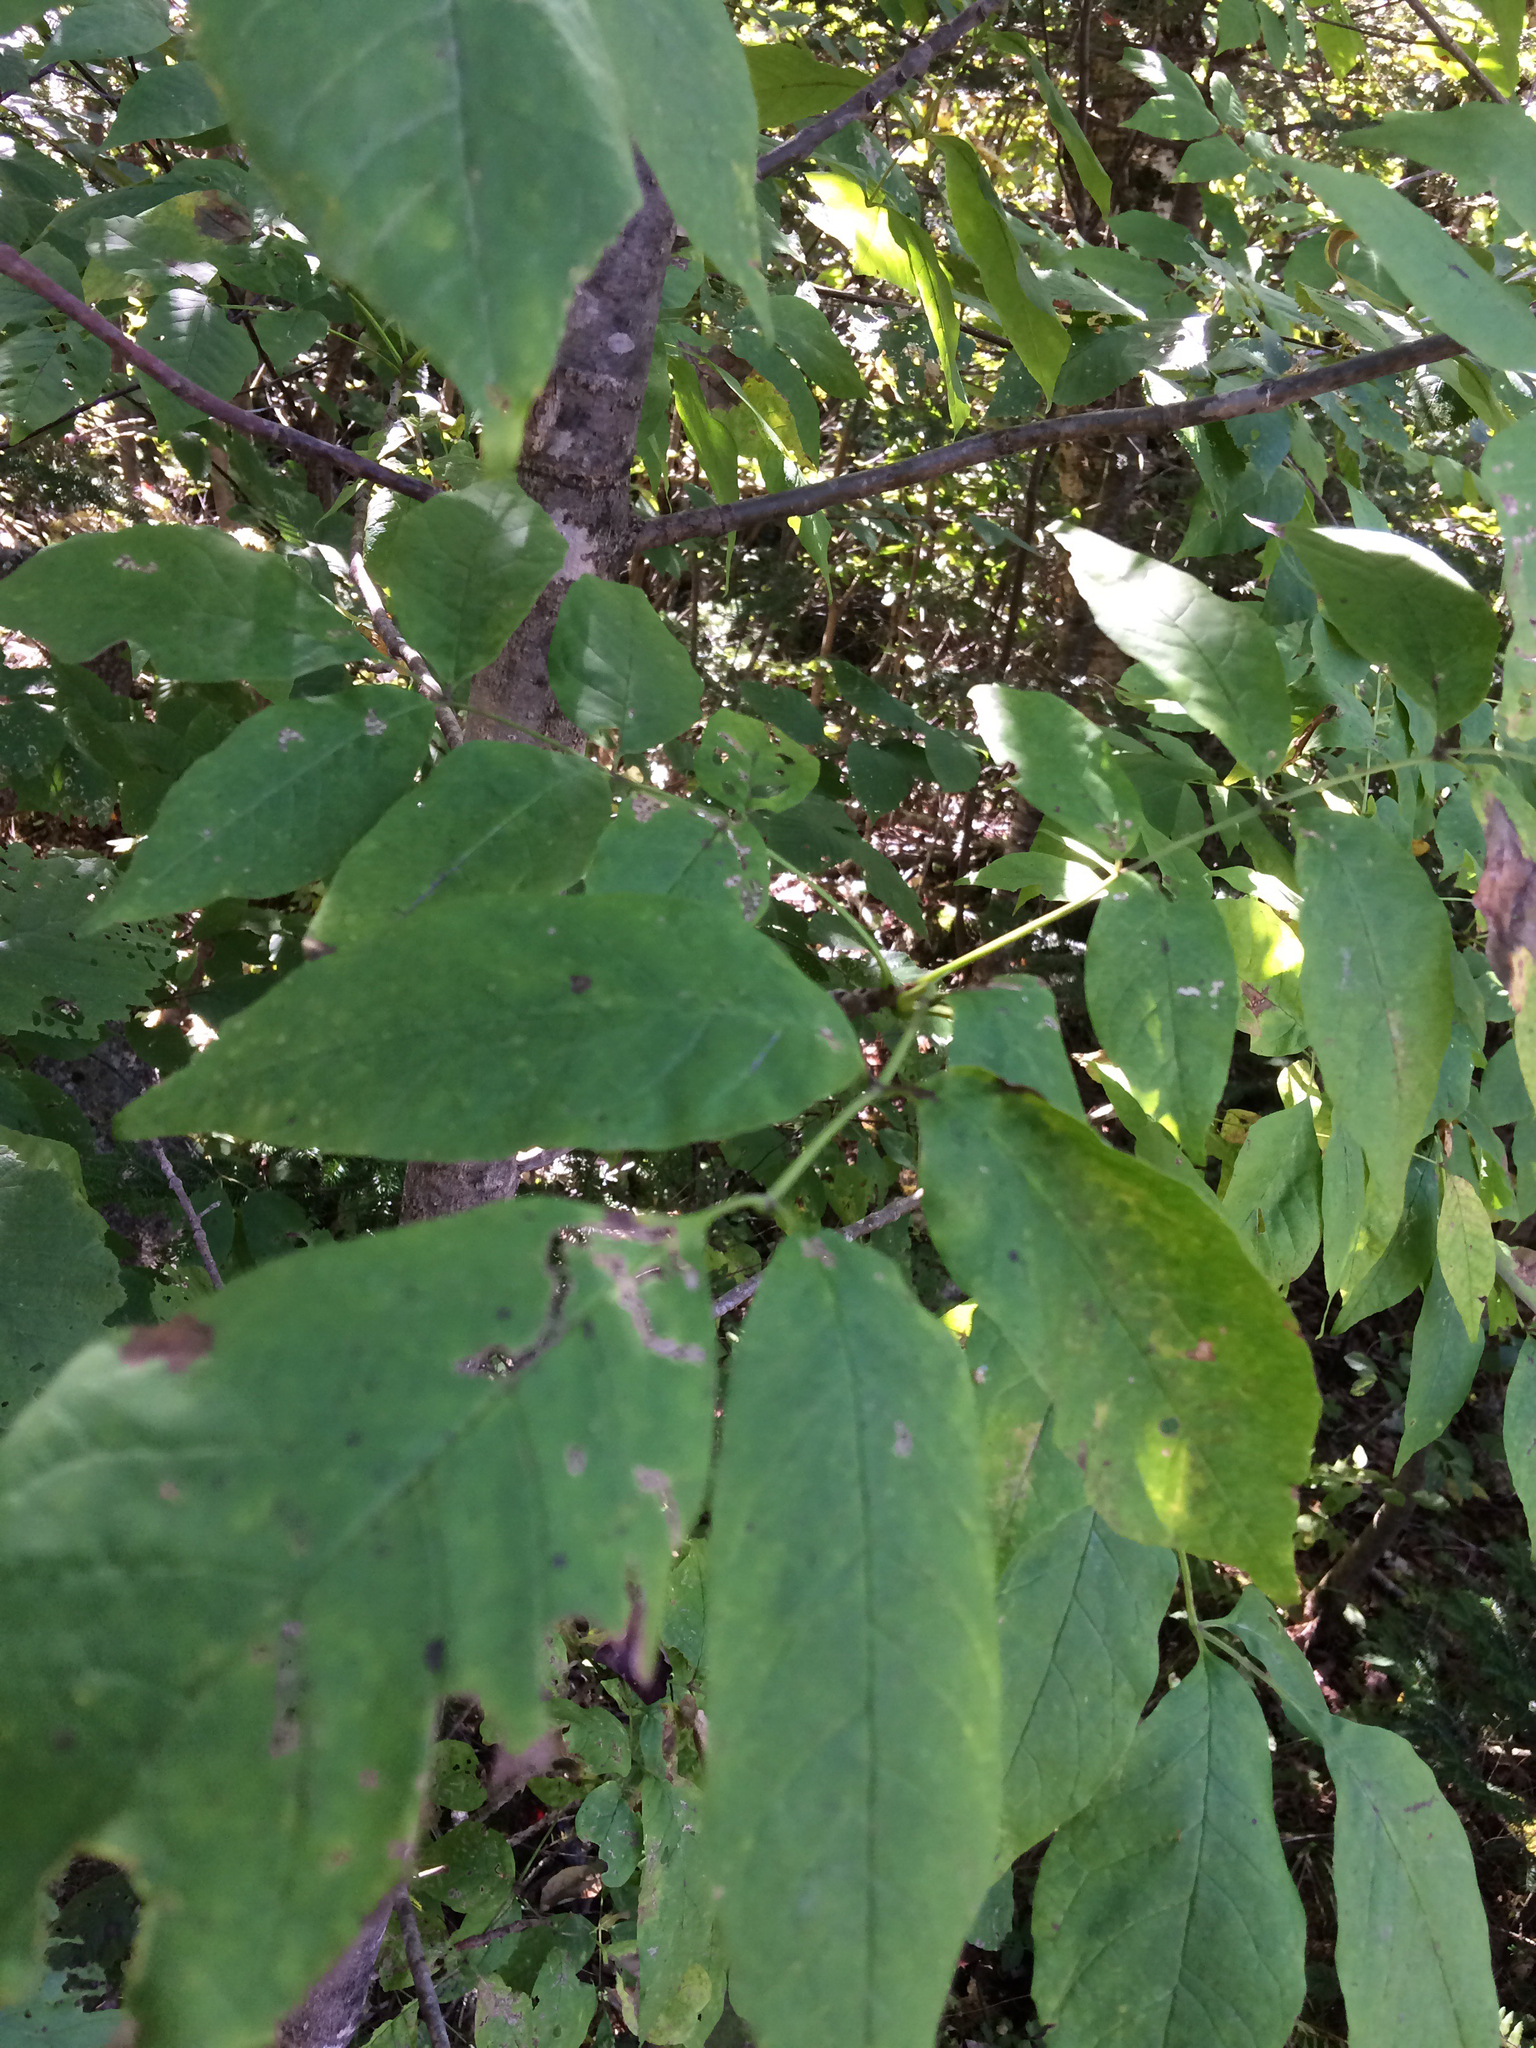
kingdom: Plantae
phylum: Tracheophyta
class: Magnoliopsida
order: Lamiales
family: Oleaceae
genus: Fraxinus
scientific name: Fraxinus americana
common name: White ash
